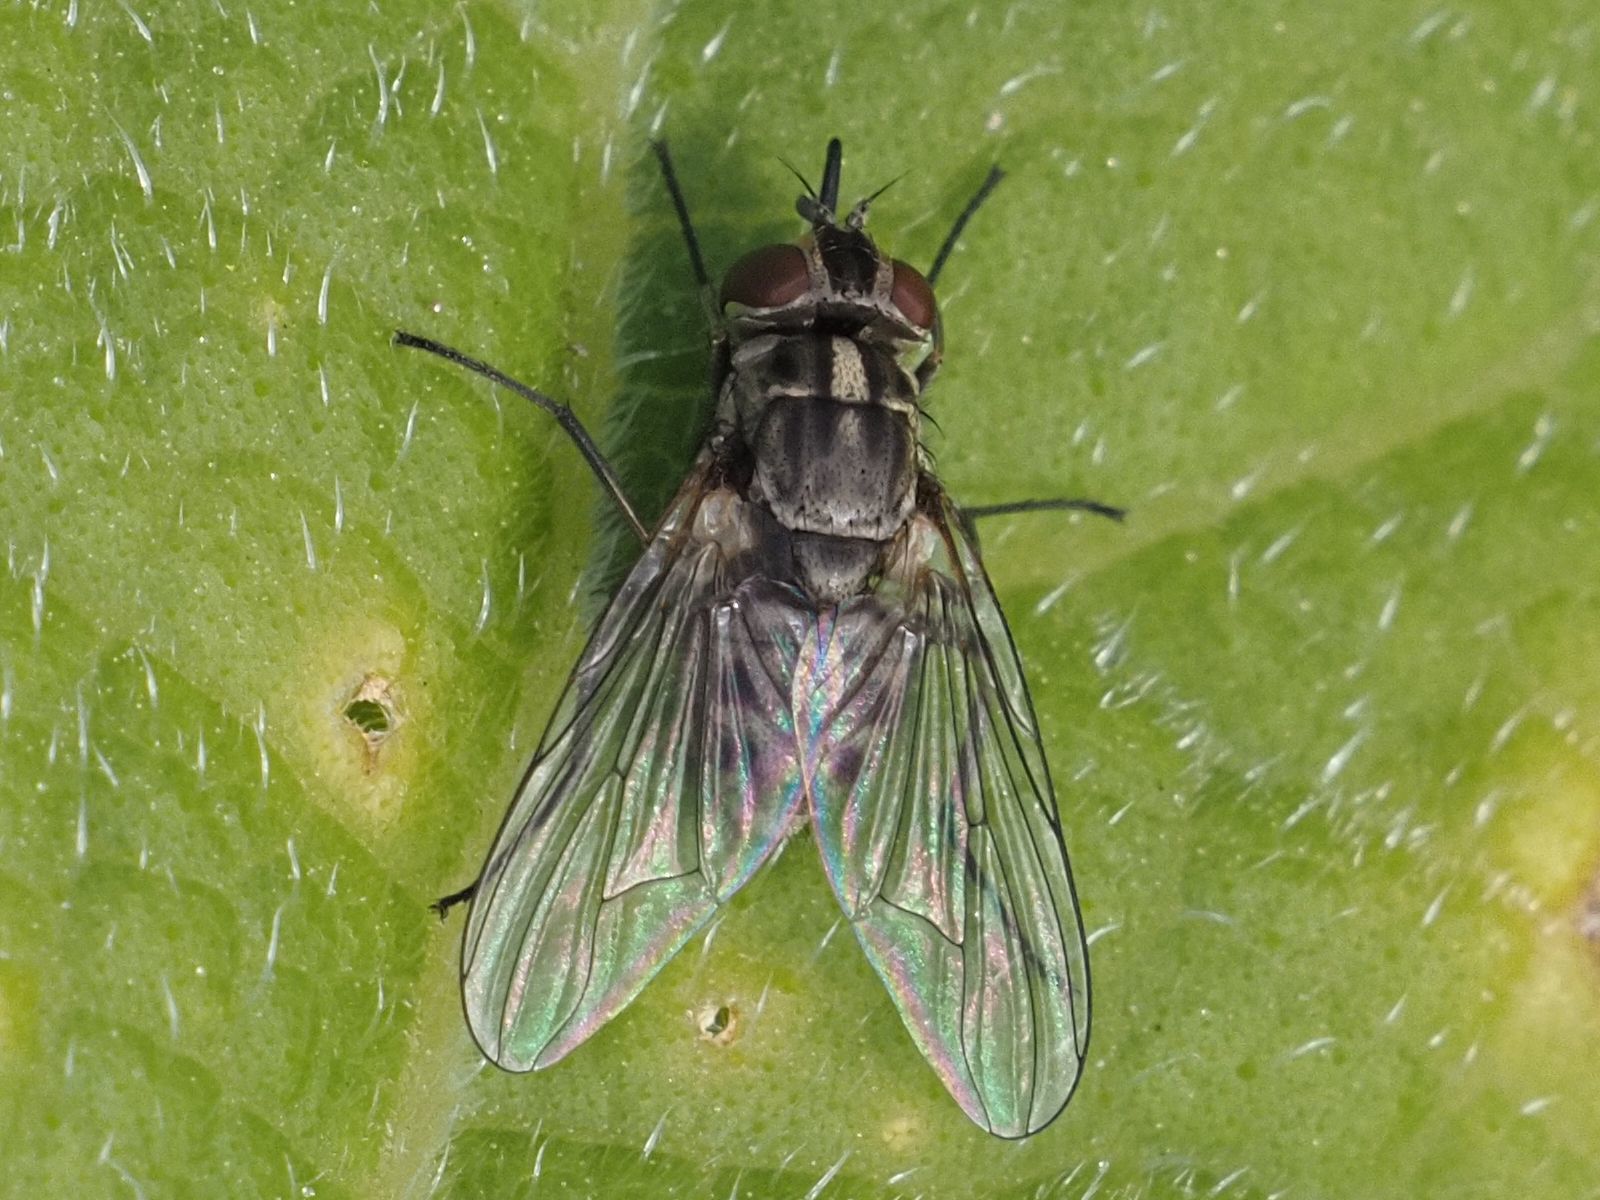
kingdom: Animalia
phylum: Arthropoda
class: Insecta
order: Diptera
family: Muscidae
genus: Stomoxys
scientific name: Stomoxys calcitrans
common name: Stable fly
